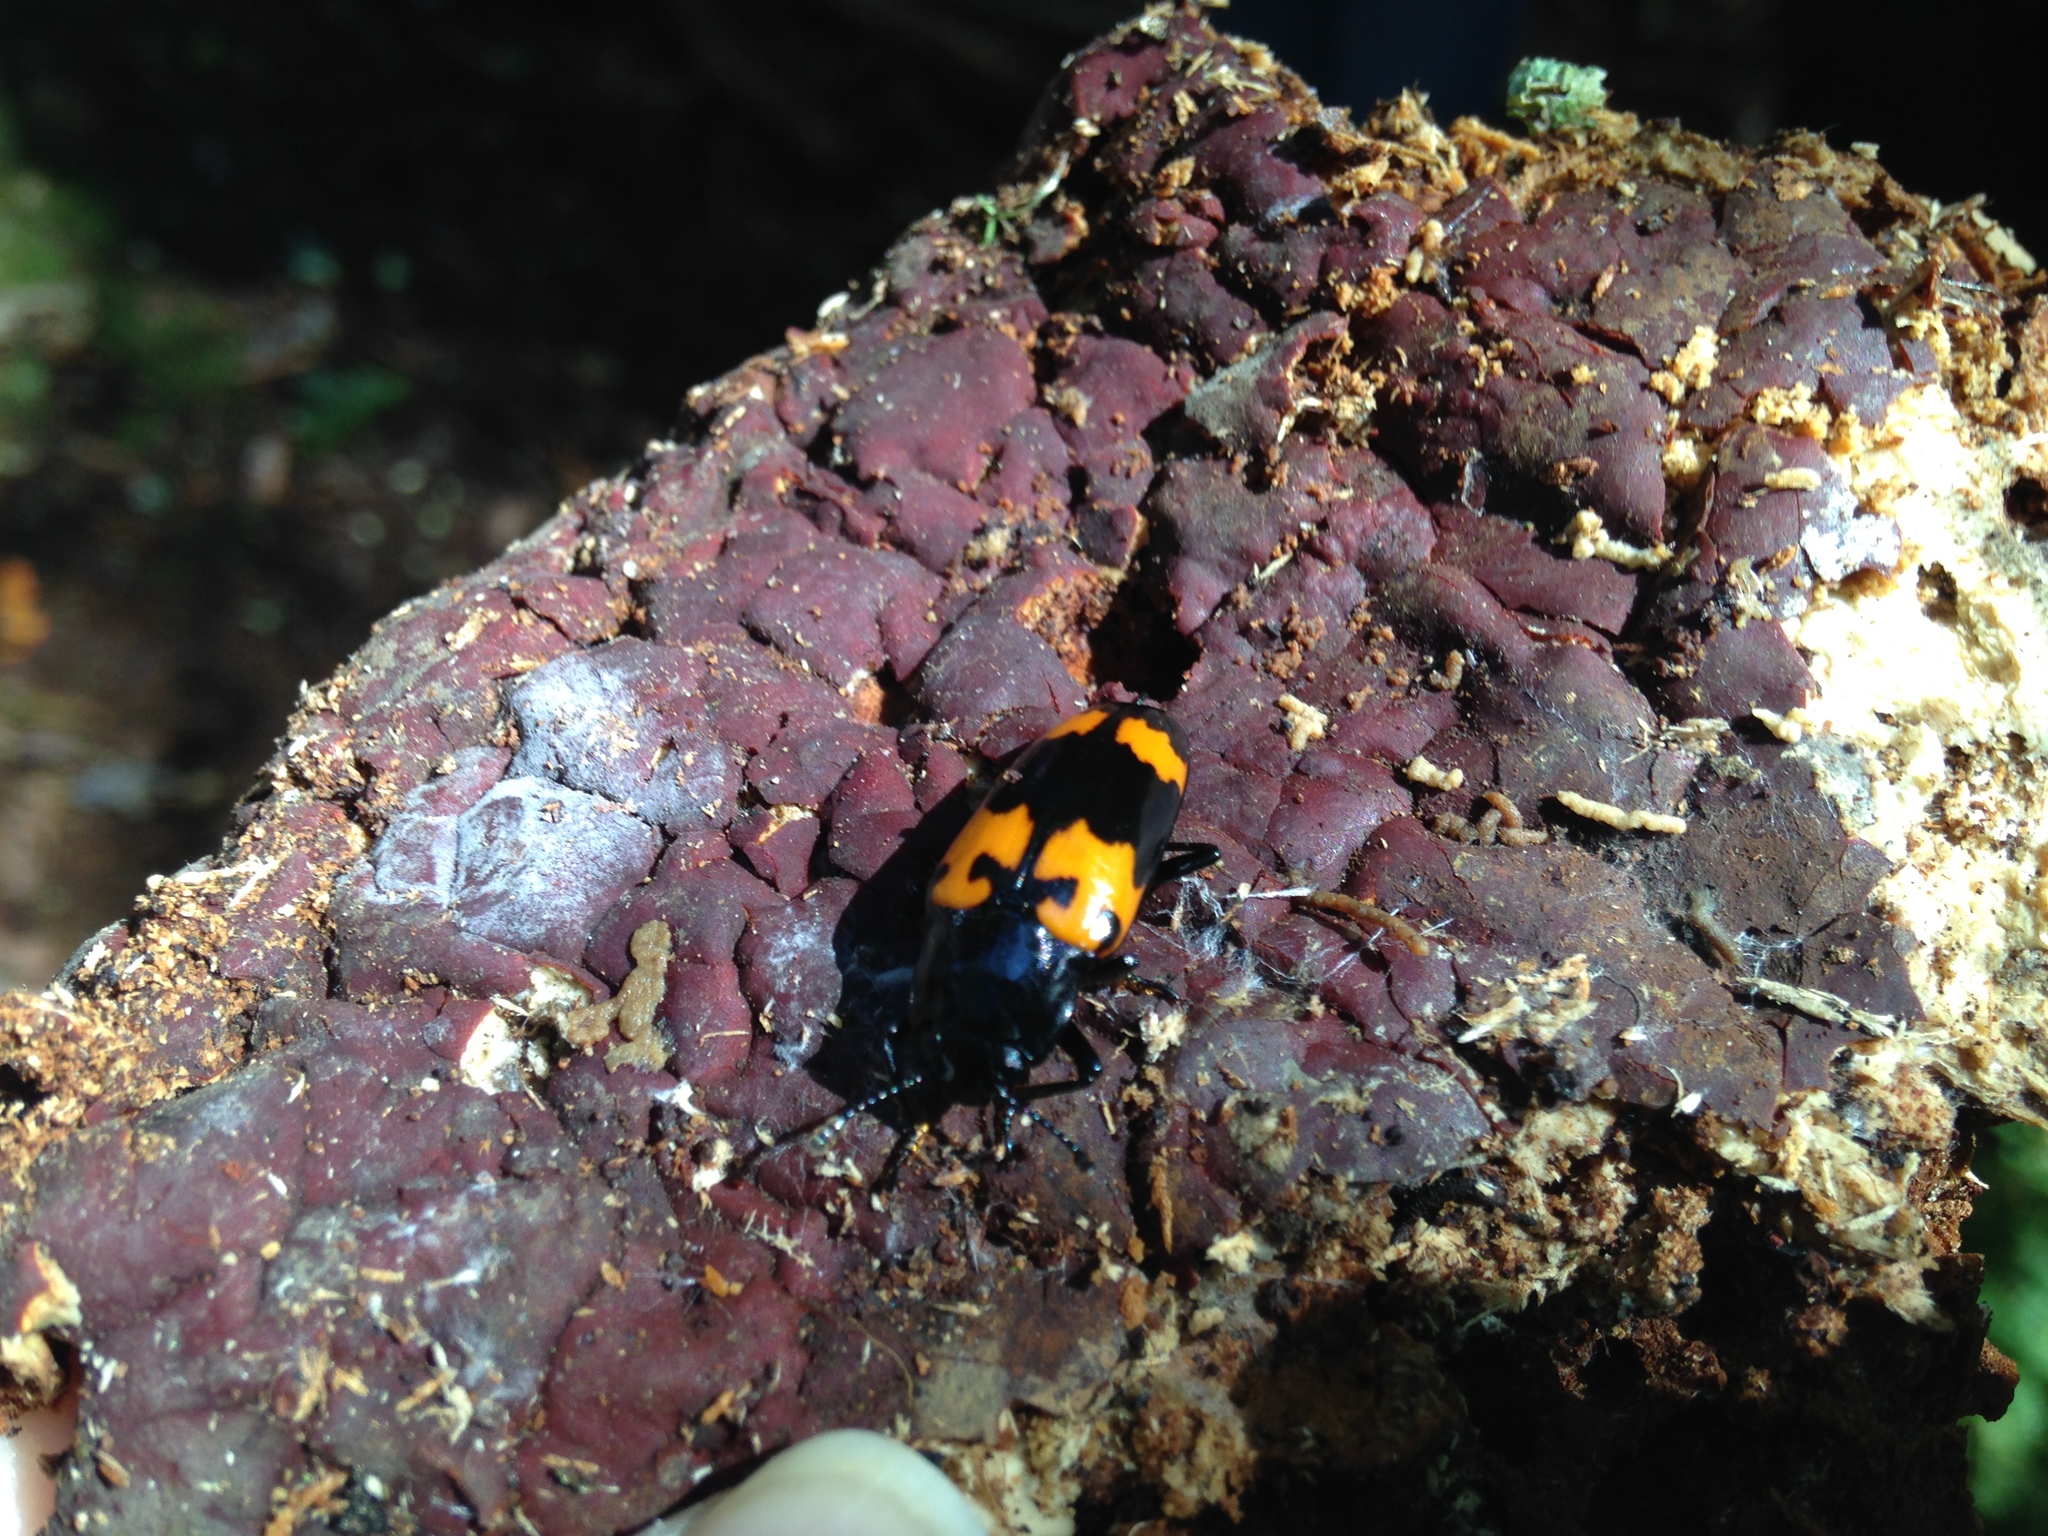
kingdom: Animalia
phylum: Arthropoda
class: Insecta
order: Coleoptera
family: Erotylidae
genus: Megalodacne
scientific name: Megalodacne heros
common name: Pleasing fungus beetle
